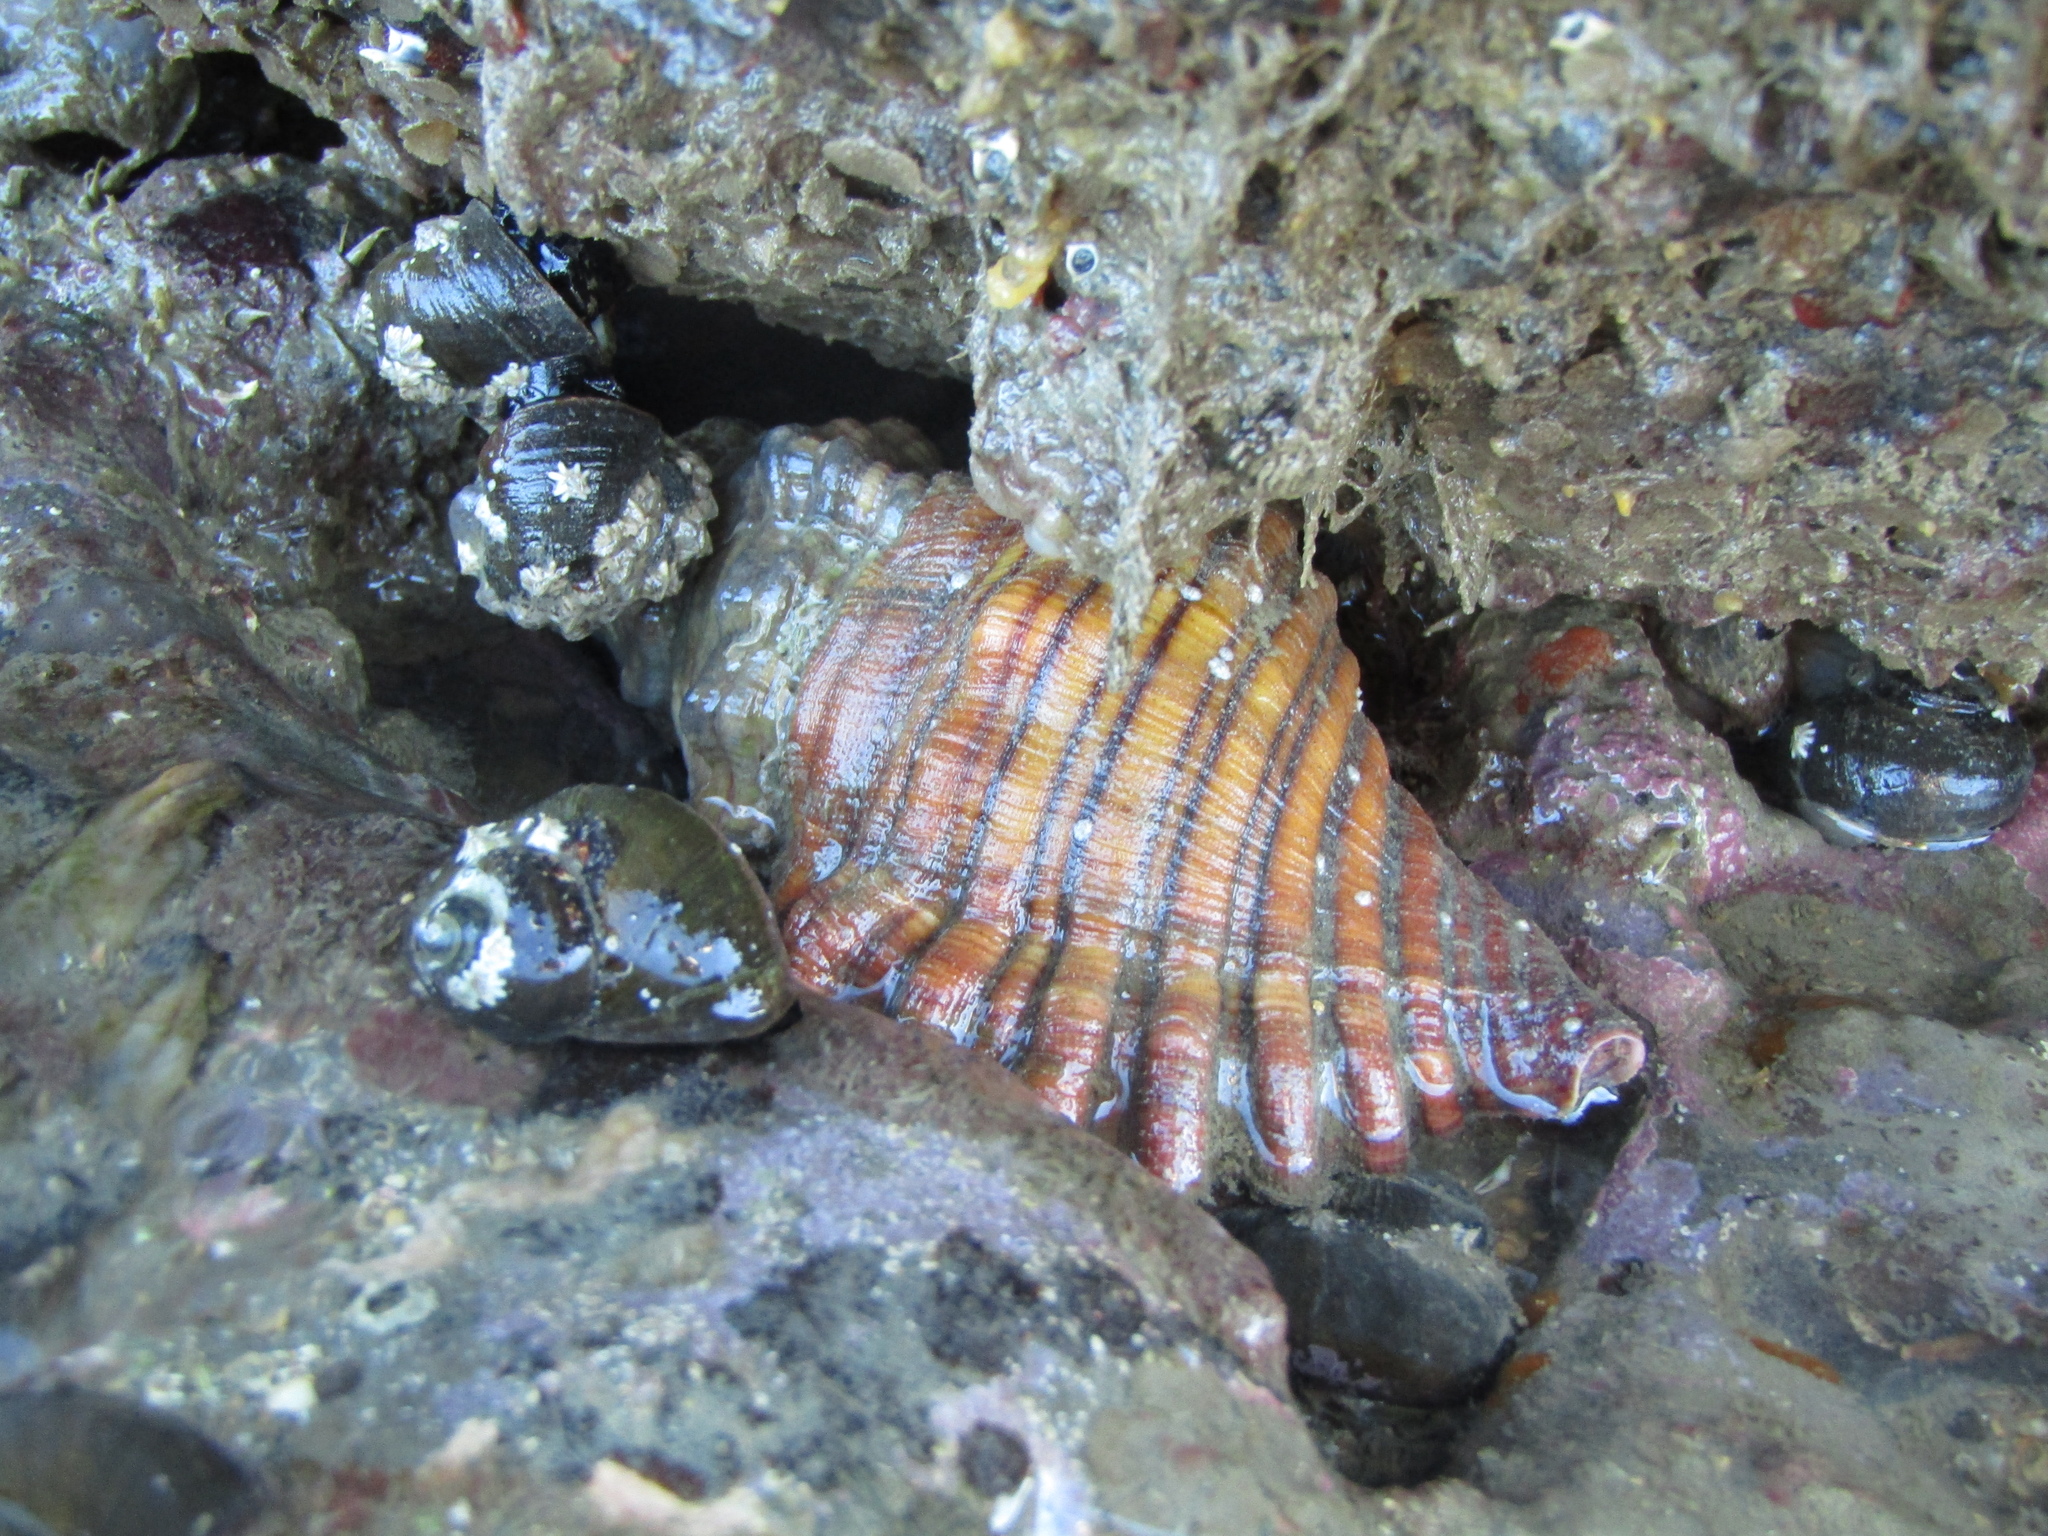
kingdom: Animalia
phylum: Mollusca
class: Gastropoda
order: Littorinimorpha
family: Cymatiidae
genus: Cabestana
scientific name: Cabestana spengleri
